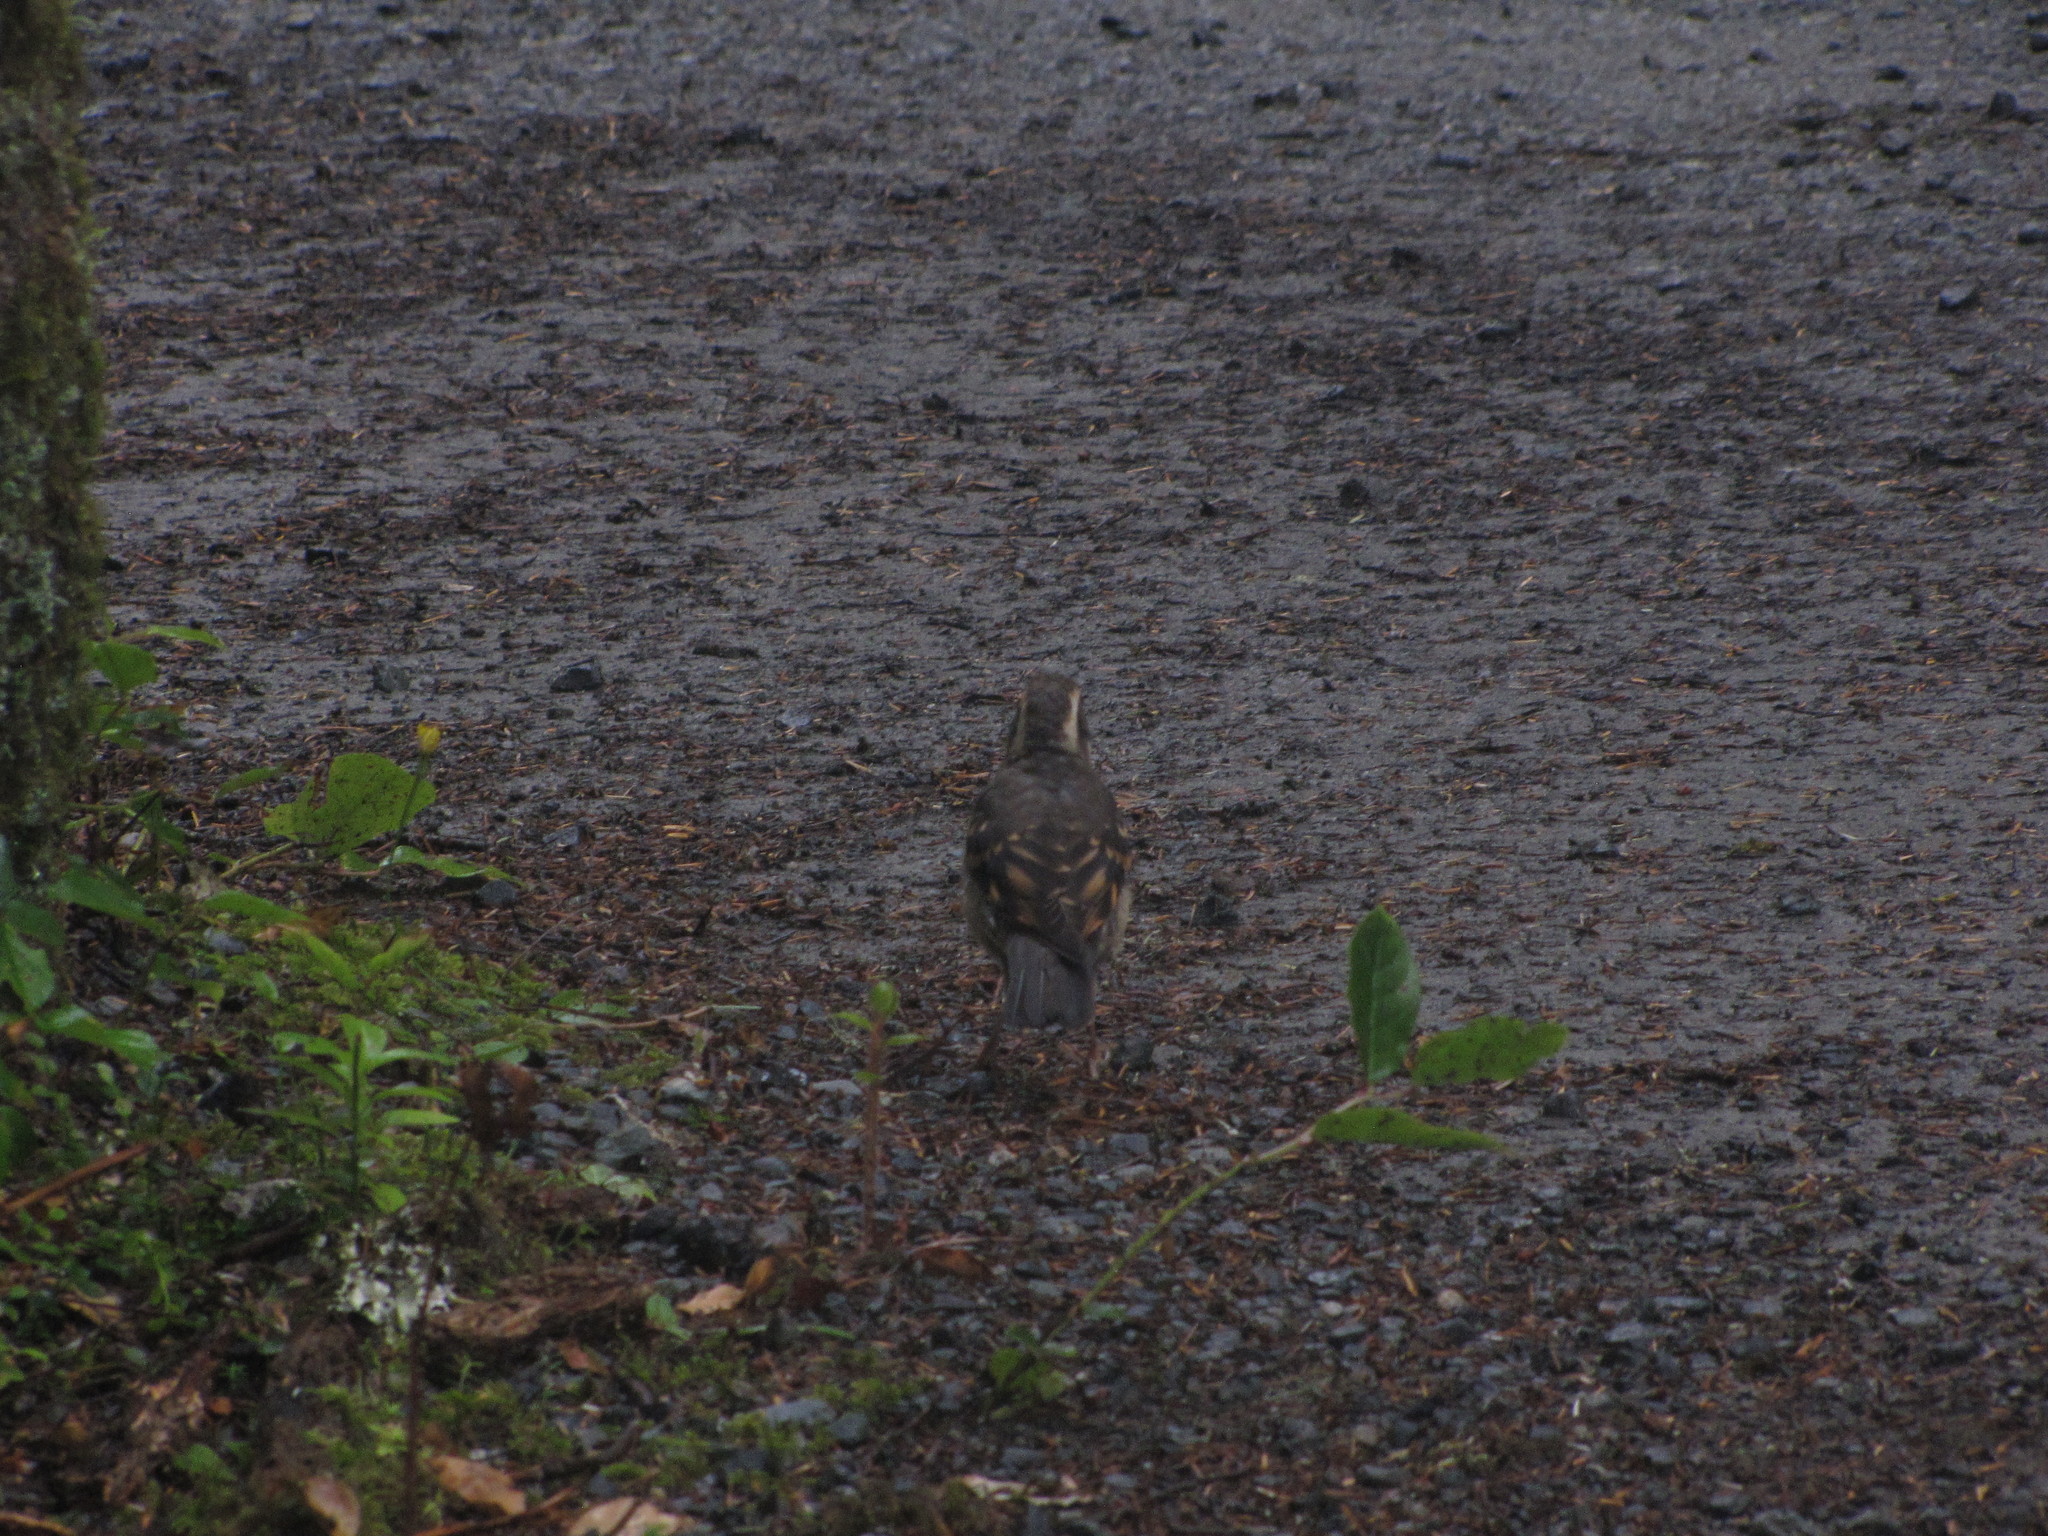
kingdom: Animalia
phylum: Chordata
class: Aves
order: Passeriformes
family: Turdidae
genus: Ixoreus
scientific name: Ixoreus naevius
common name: Varied thrush
